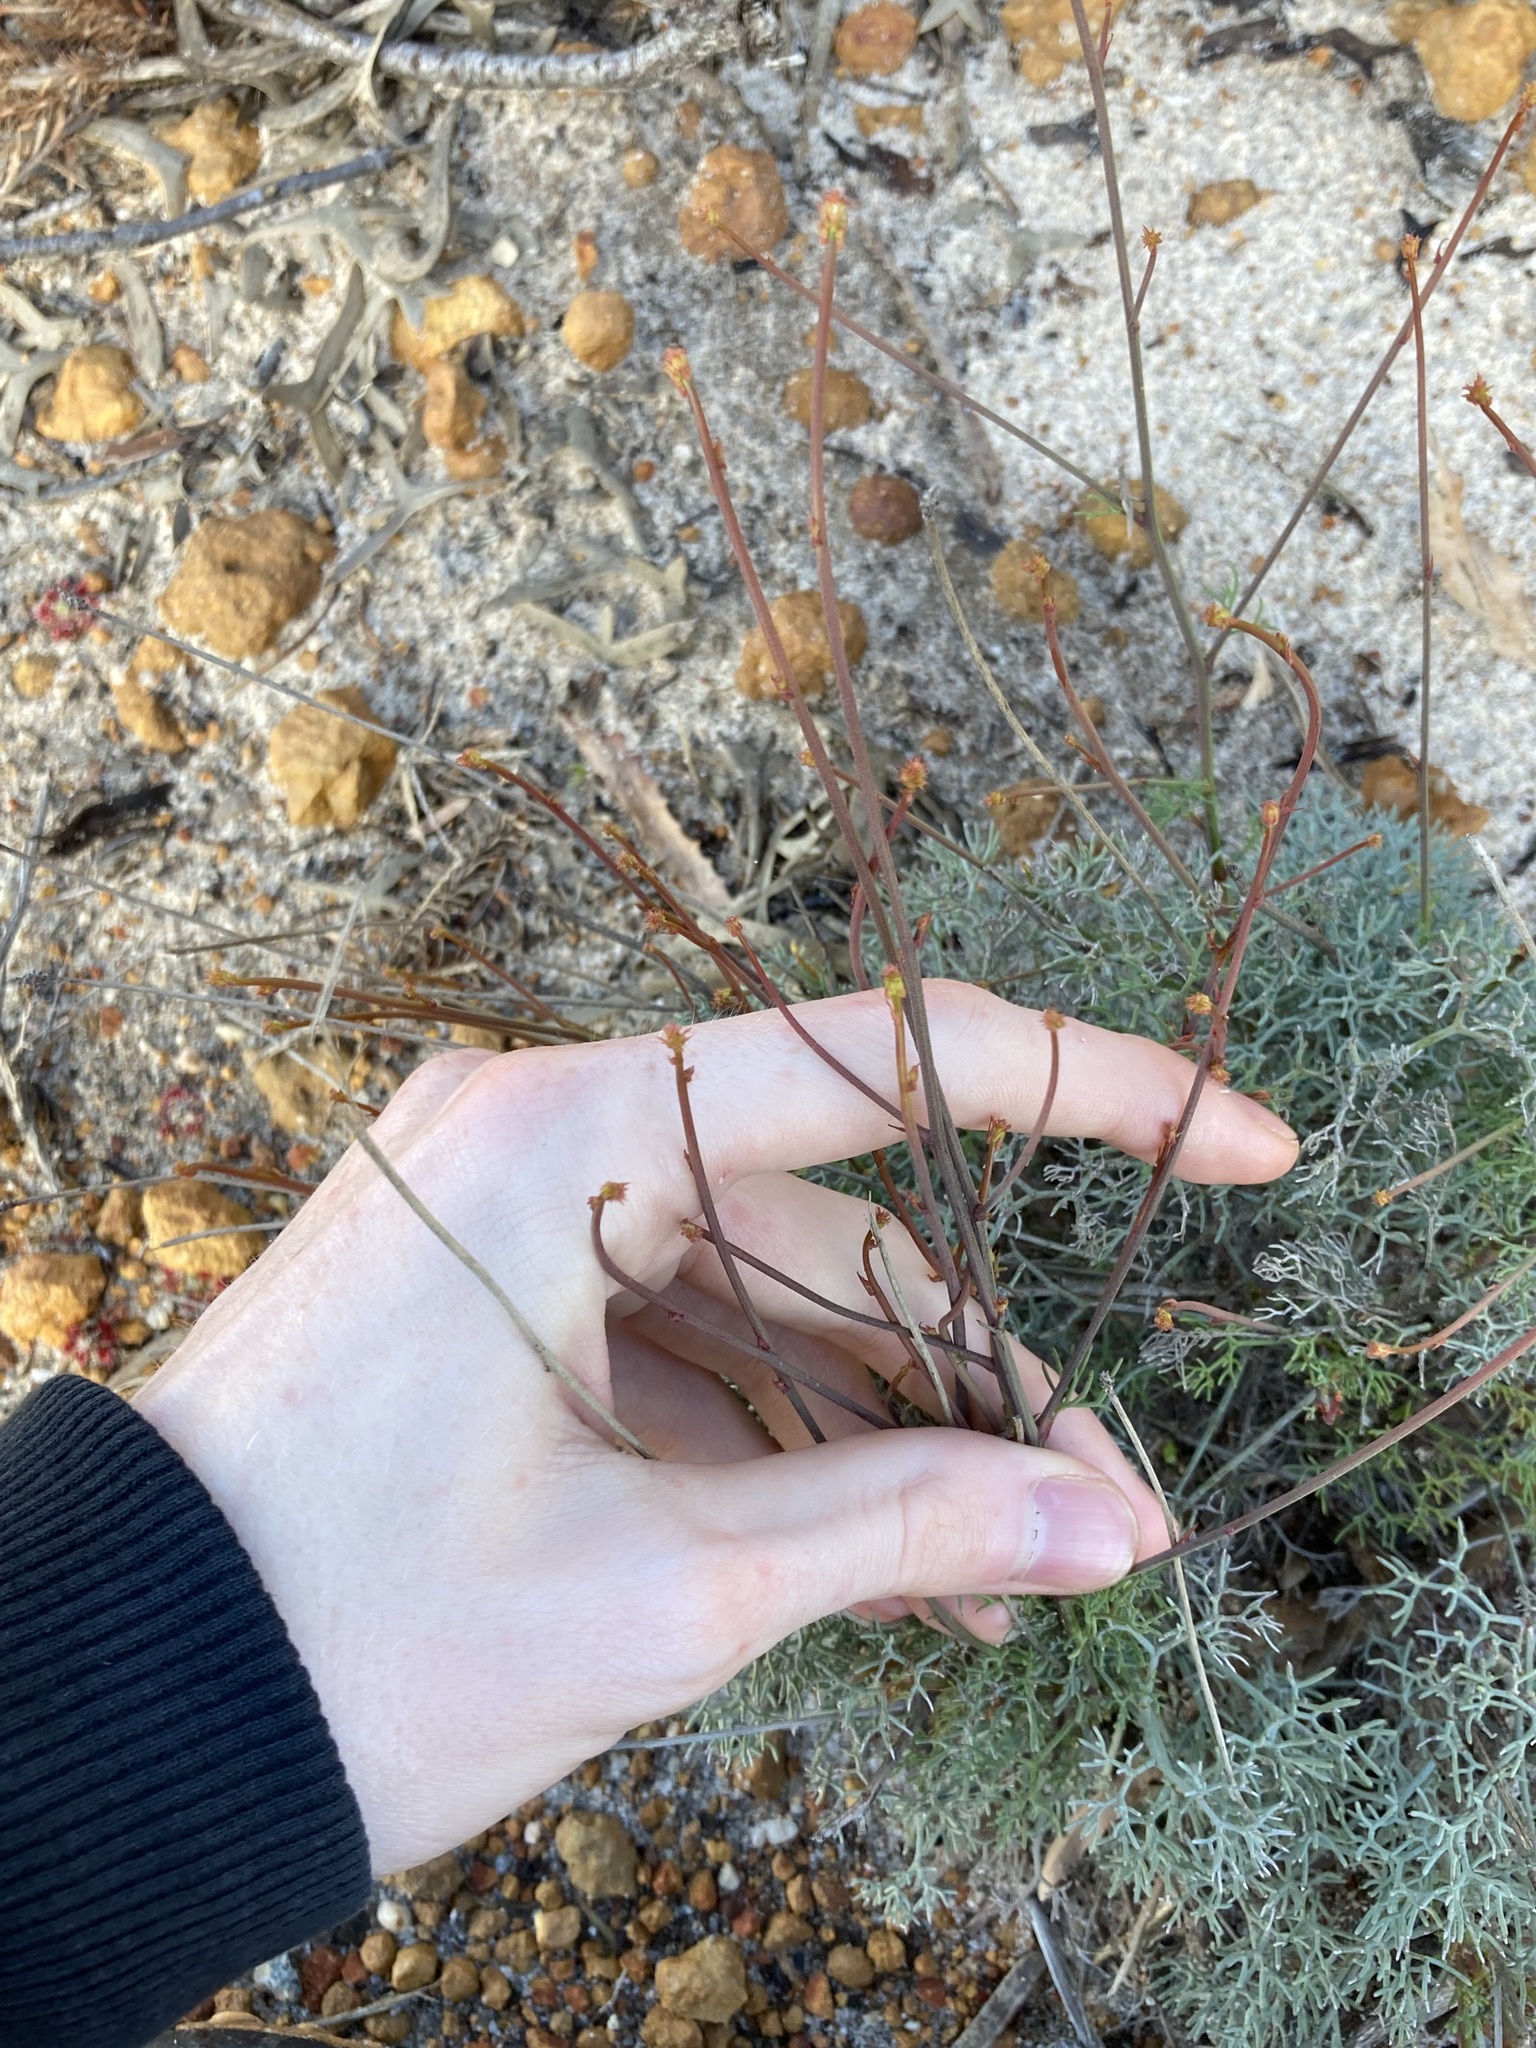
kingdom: Plantae
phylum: Tracheophyta
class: Magnoliopsida
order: Proteales
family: Proteaceae
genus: Stirlingia
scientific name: Stirlingia simplex
